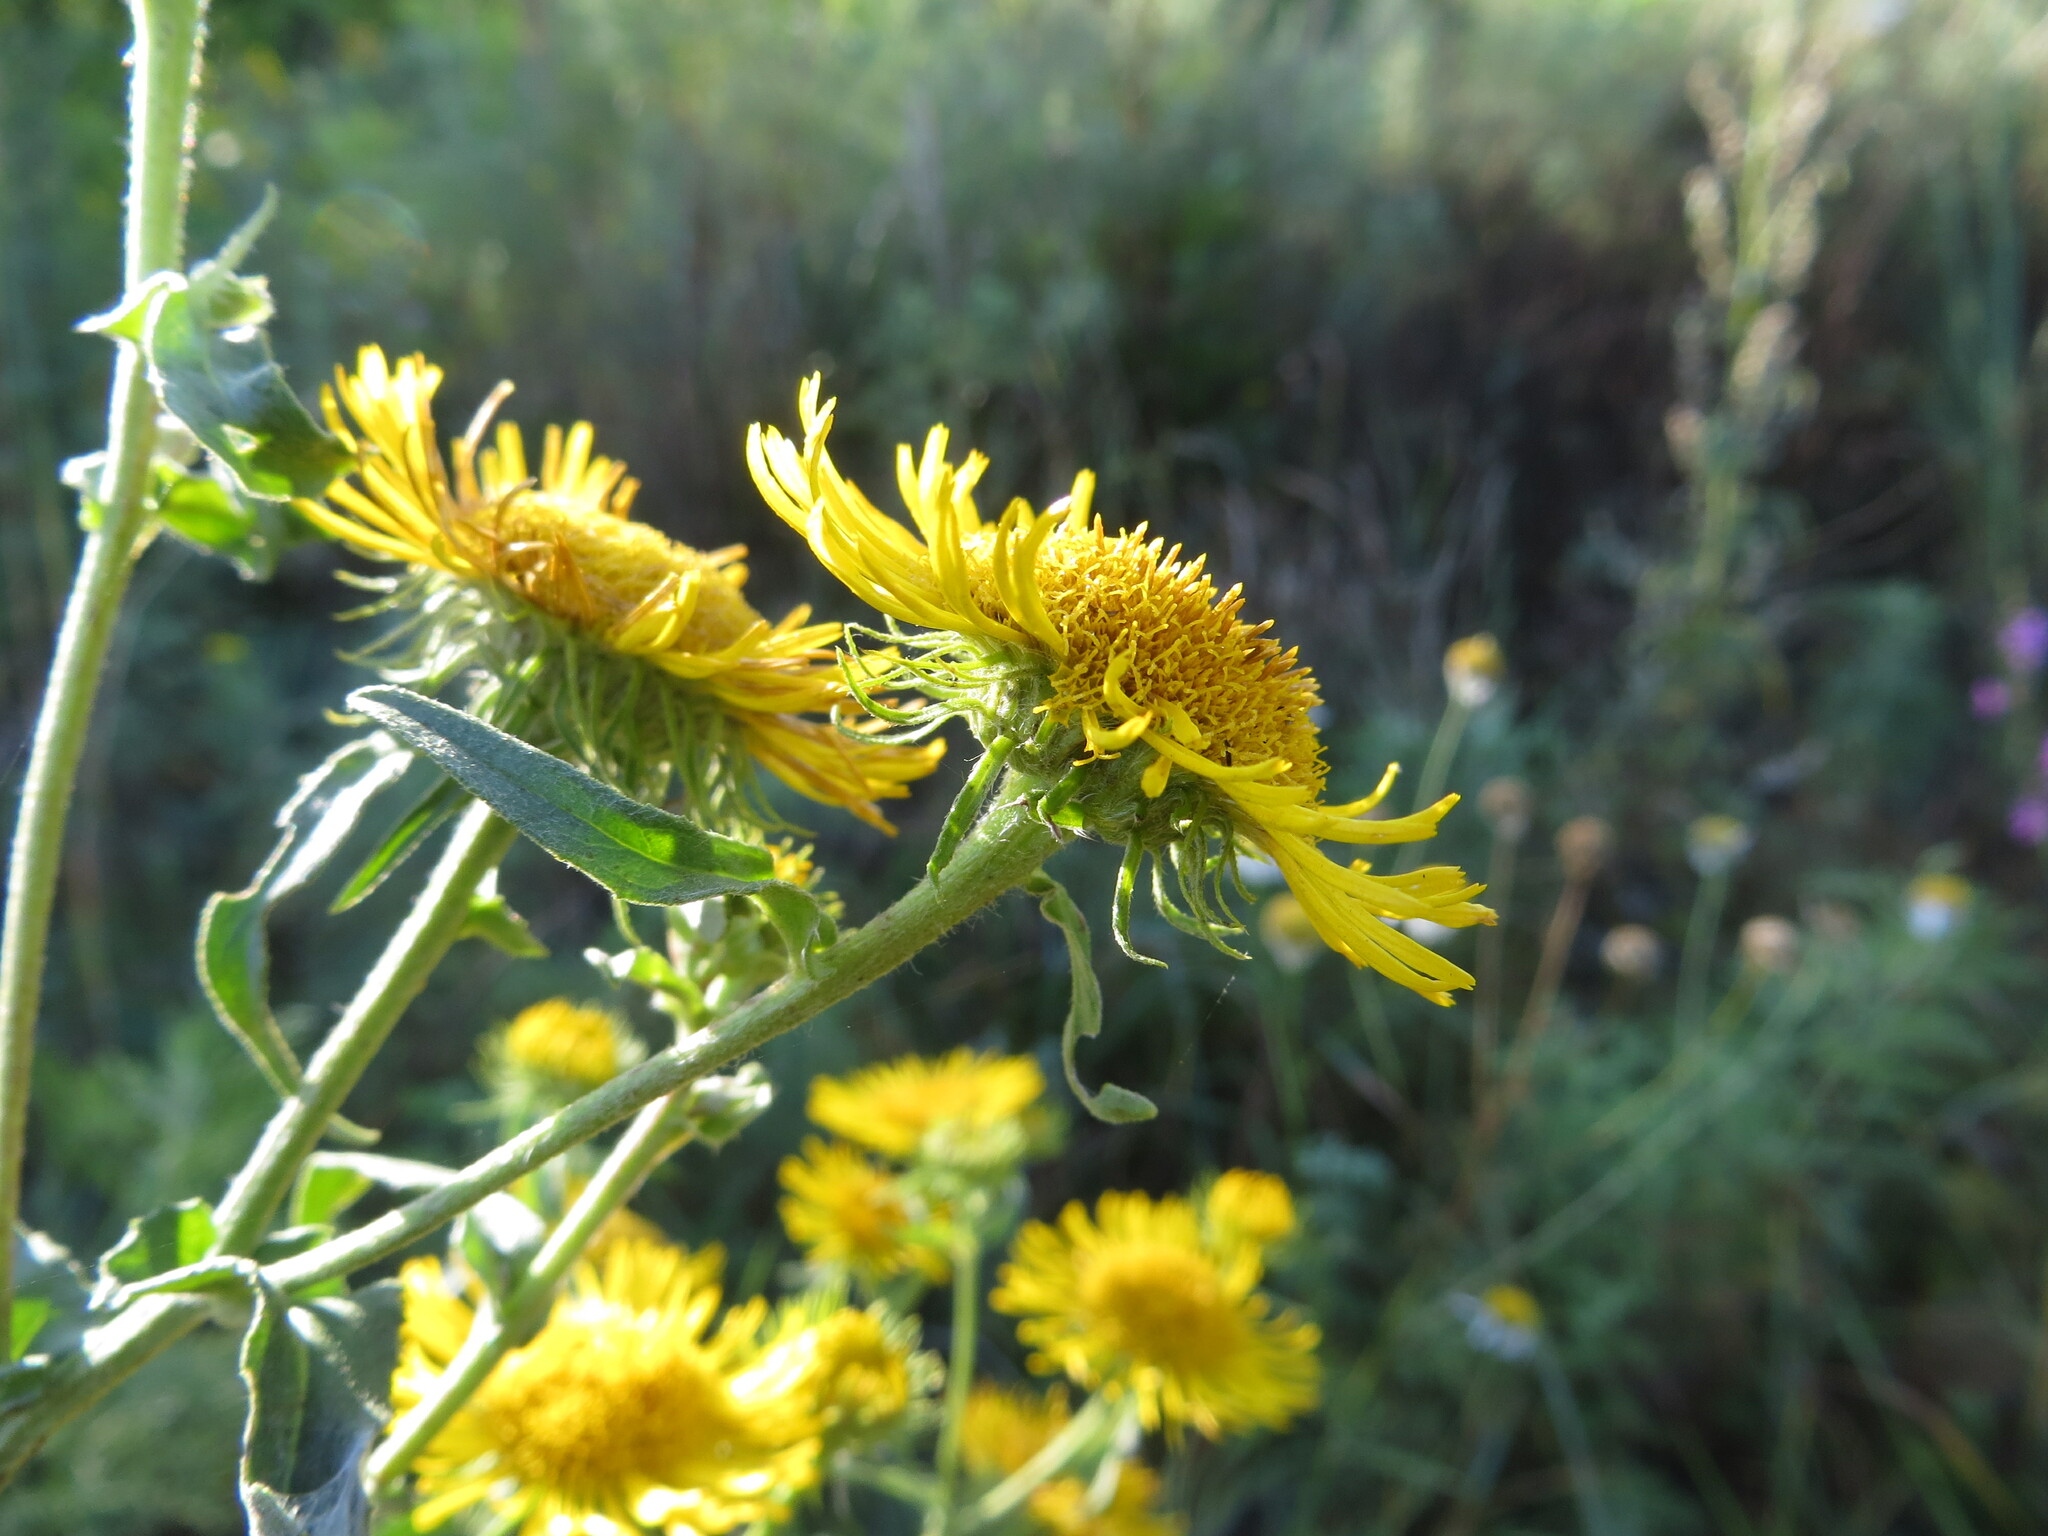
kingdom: Plantae
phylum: Tracheophyta
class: Magnoliopsida
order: Asterales
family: Asteraceae
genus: Pentanema
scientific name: Pentanema britannicum
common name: British elecampane
